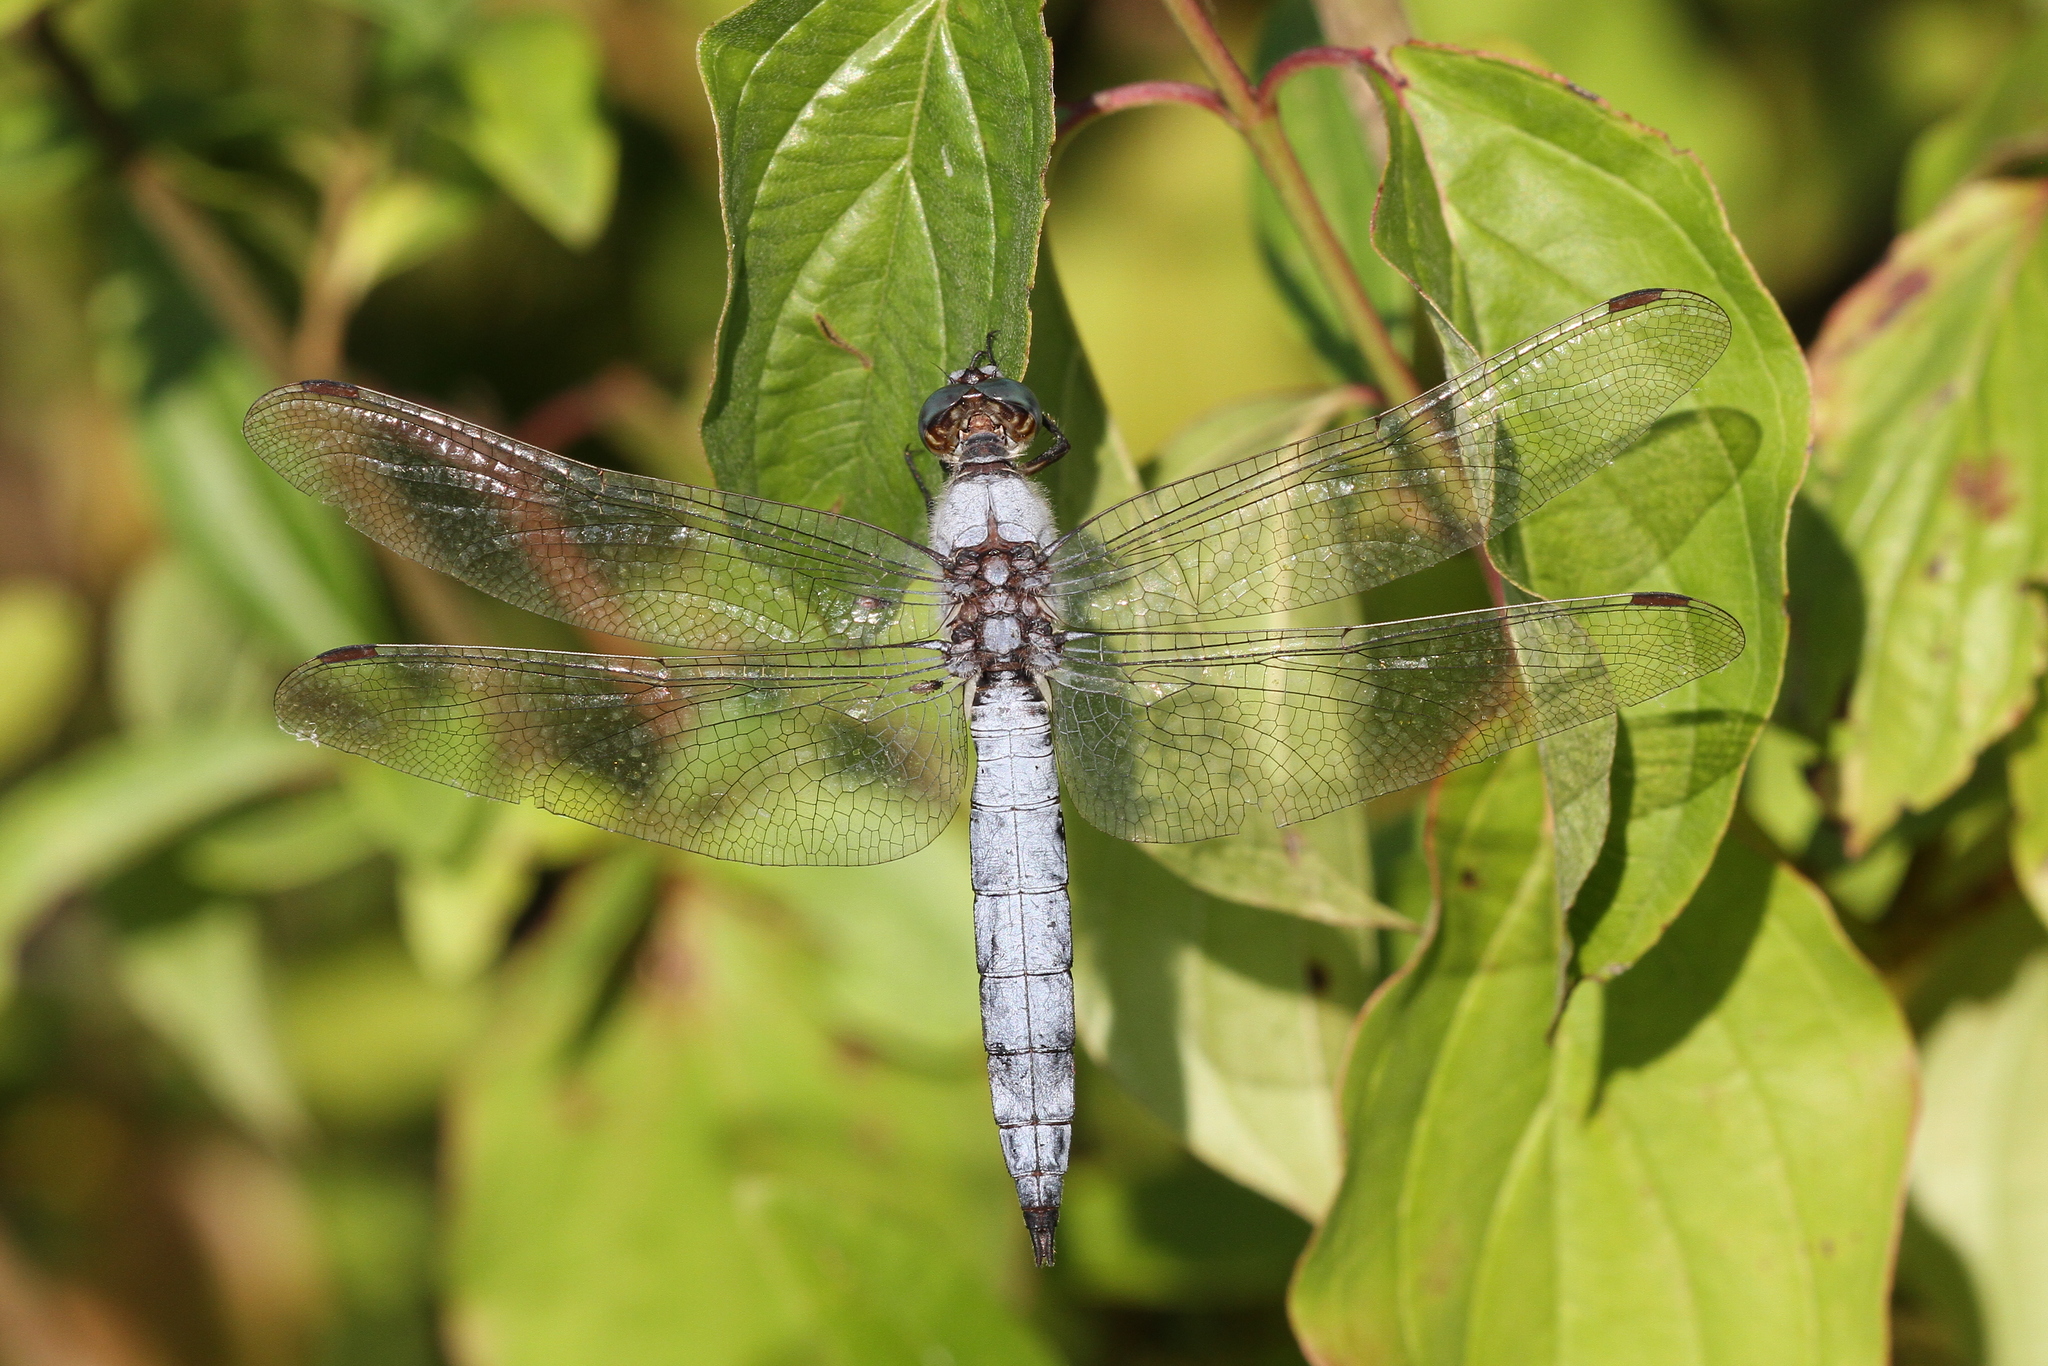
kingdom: Animalia
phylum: Arthropoda
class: Insecta
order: Odonata
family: Libellulidae
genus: Orthetrum
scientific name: Orthetrum brunneum
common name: Southern skimmer
